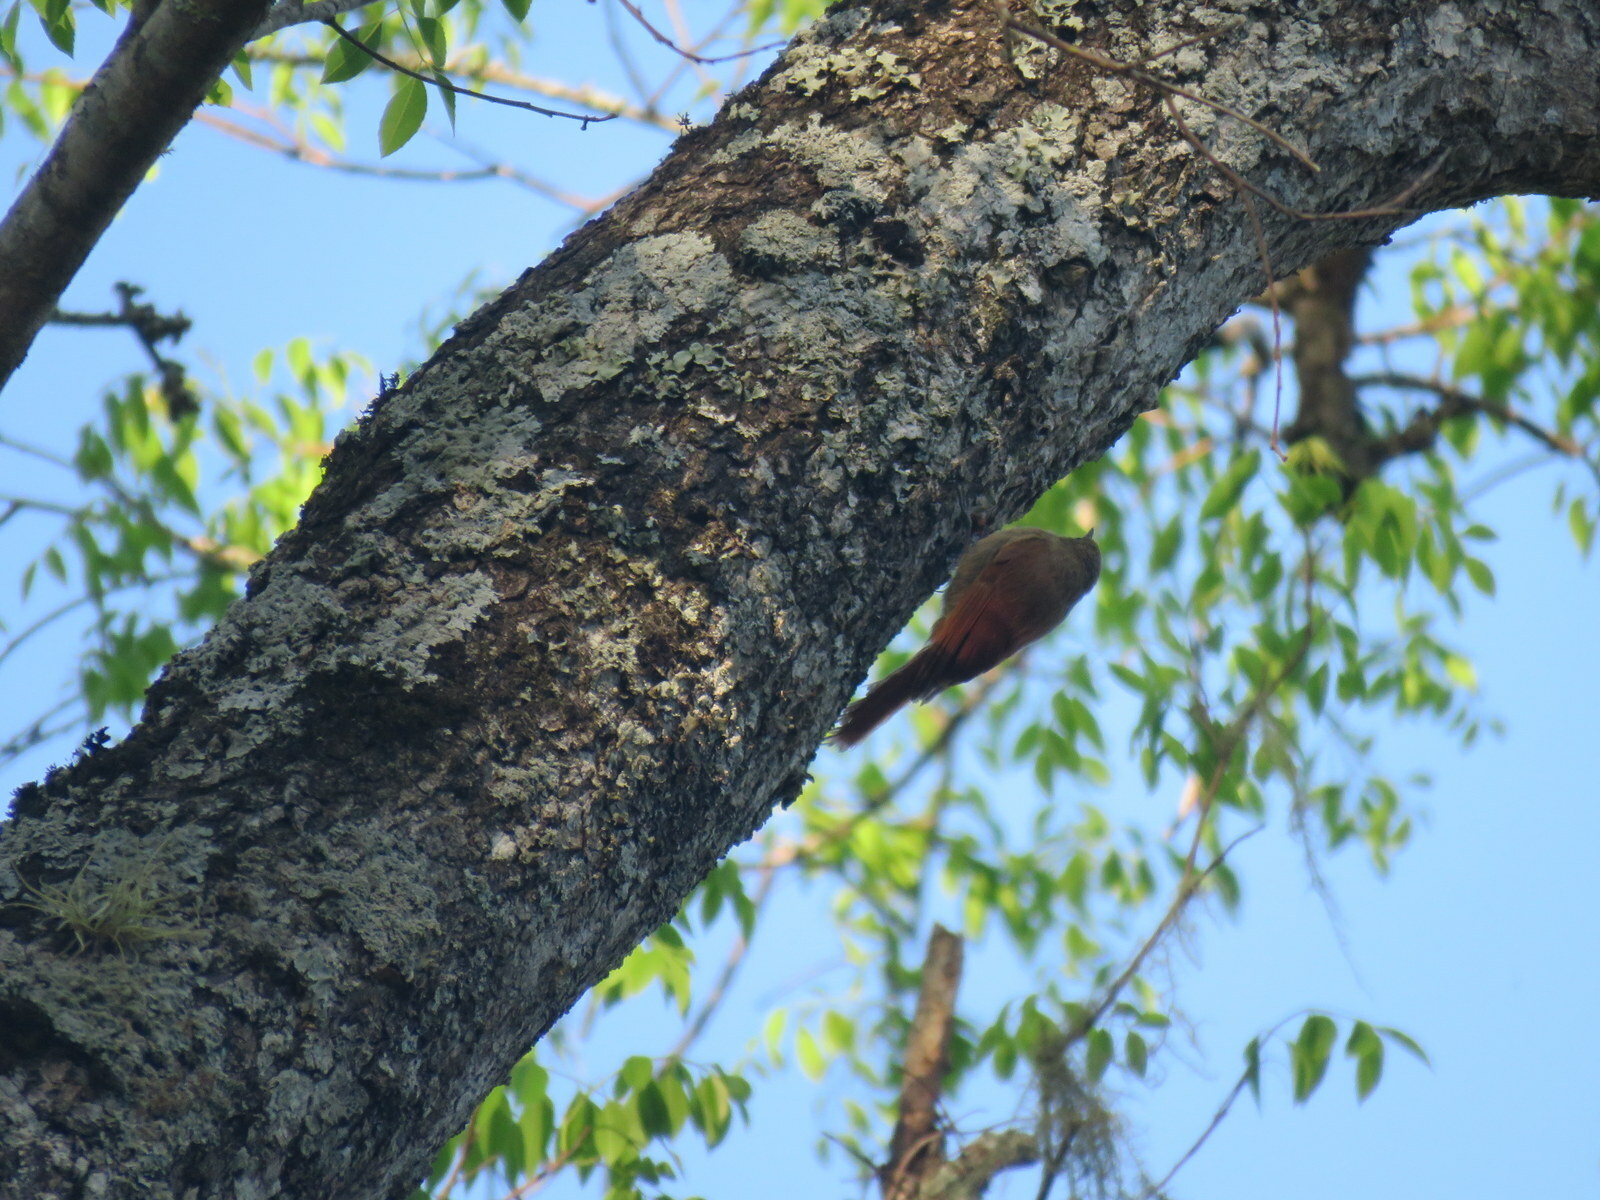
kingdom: Animalia
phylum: Chordata
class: Aves
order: Passeriformes
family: Furnariidae
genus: Sittasomus
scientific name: Sittasomus griseicapillus
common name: Olivaceous woodcreeper
